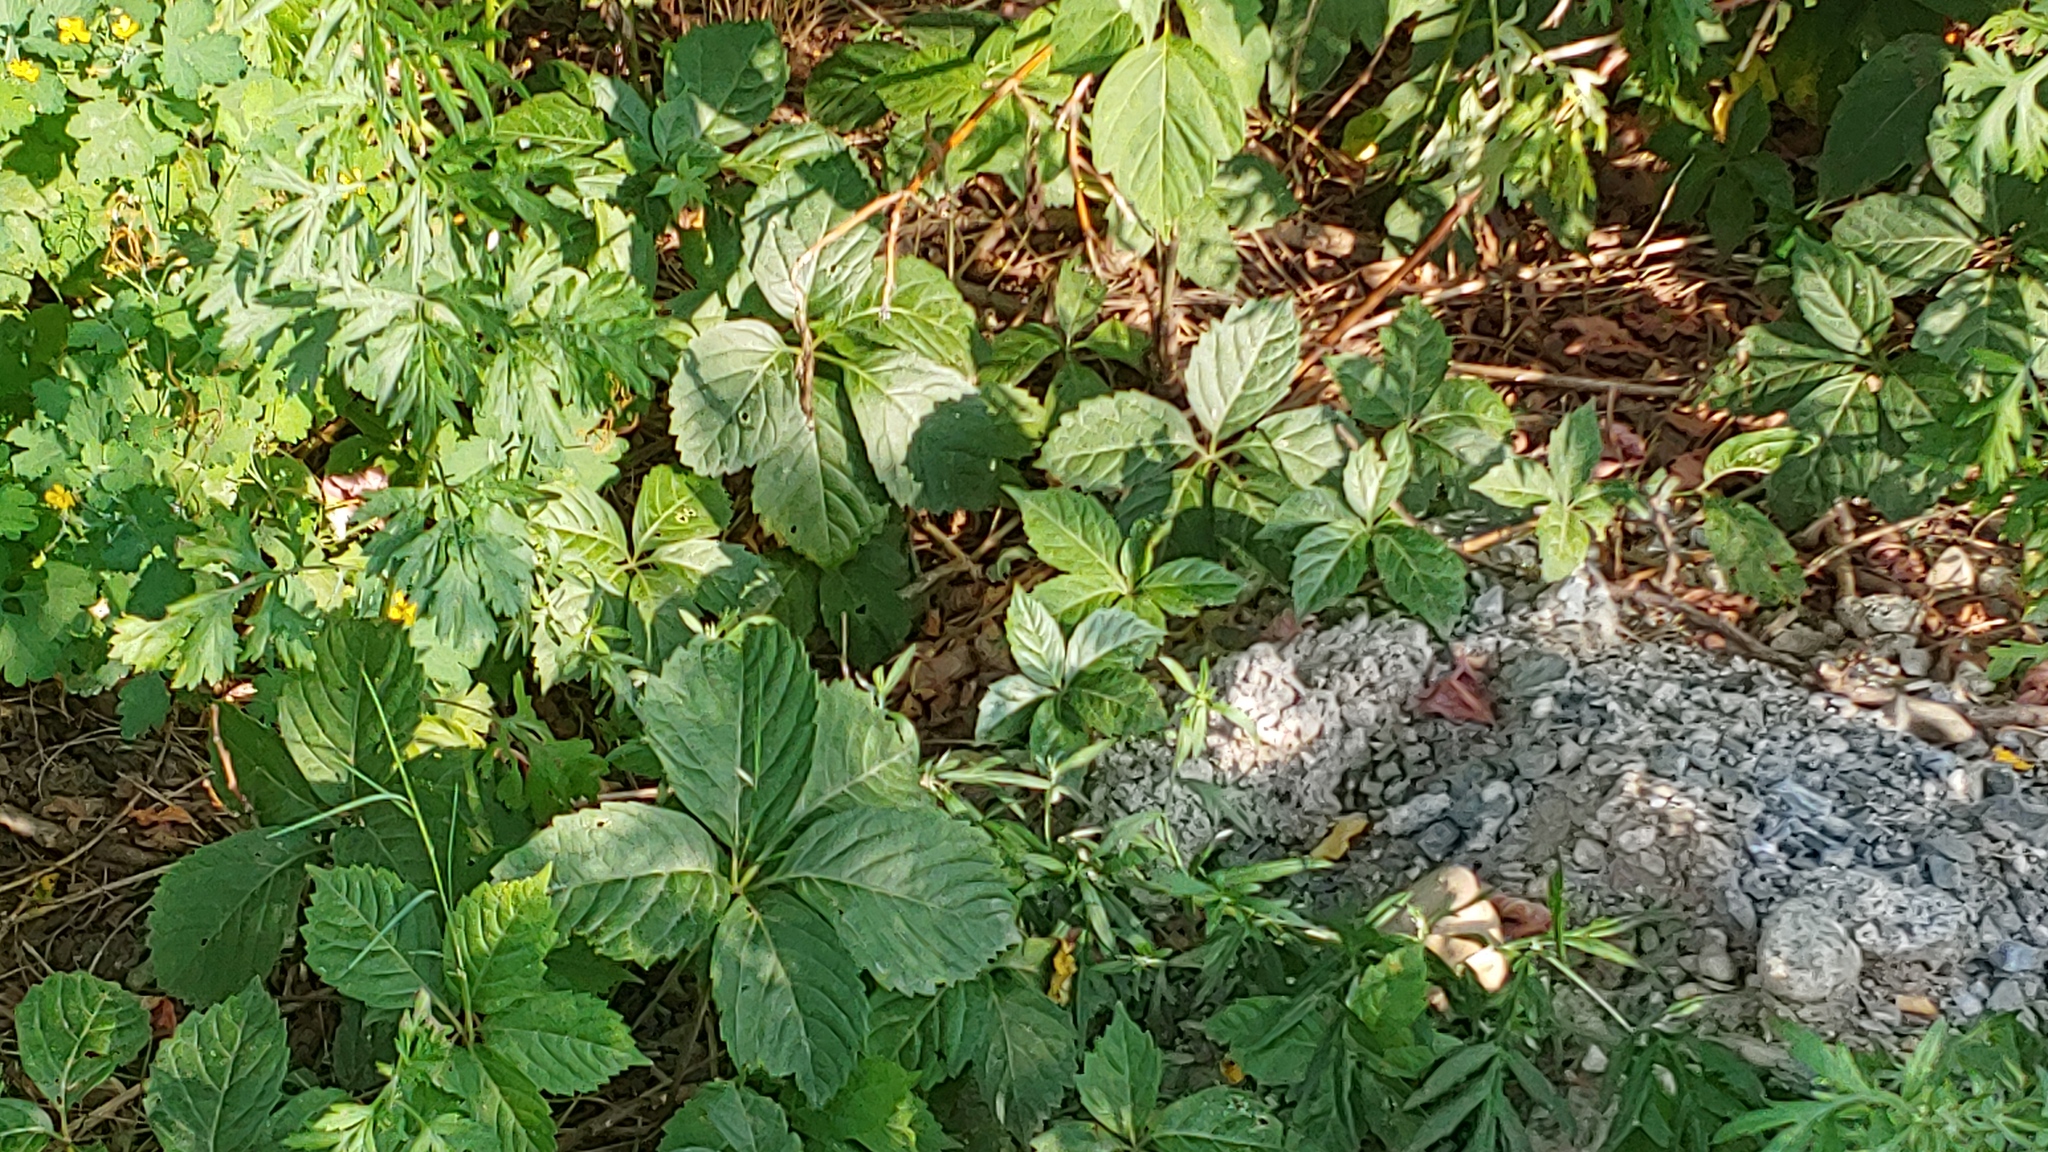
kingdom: Plantae
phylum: Tracheophyta
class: Magnoliopsida
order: Vitales
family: Vitaceae
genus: Parthenocissus
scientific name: Parthenocissus inserta
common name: False virginia-creeper
